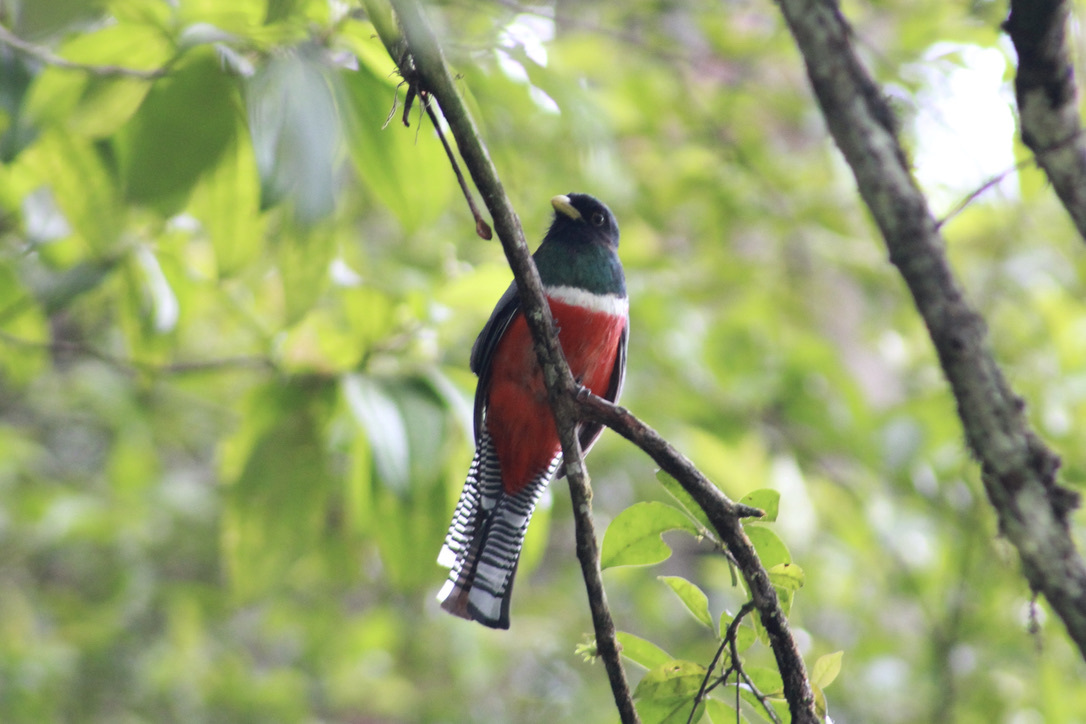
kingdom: Animalia
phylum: Chordata
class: Aves
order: Trogoniformes
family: Trogonidae
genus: Trogon
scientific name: Trogon collaris
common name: Collared trogon
